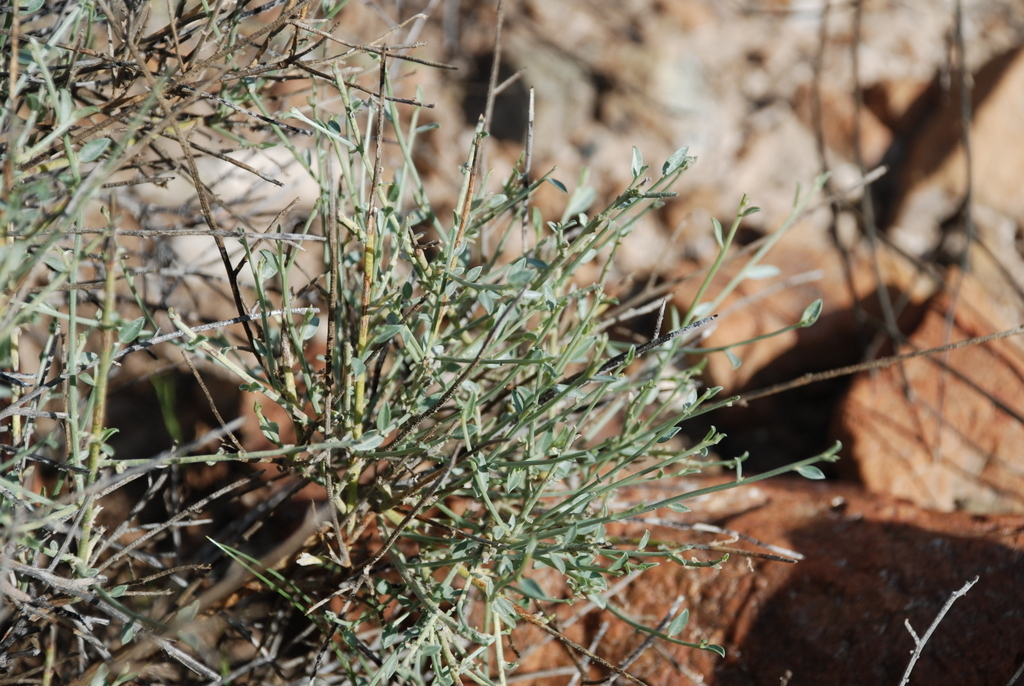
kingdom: Plantae
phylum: Tracheophyta
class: Magnoliopsida
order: Fabales
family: Fabaceae
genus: Crotalaria
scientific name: Crotalaria aegyptiaca
